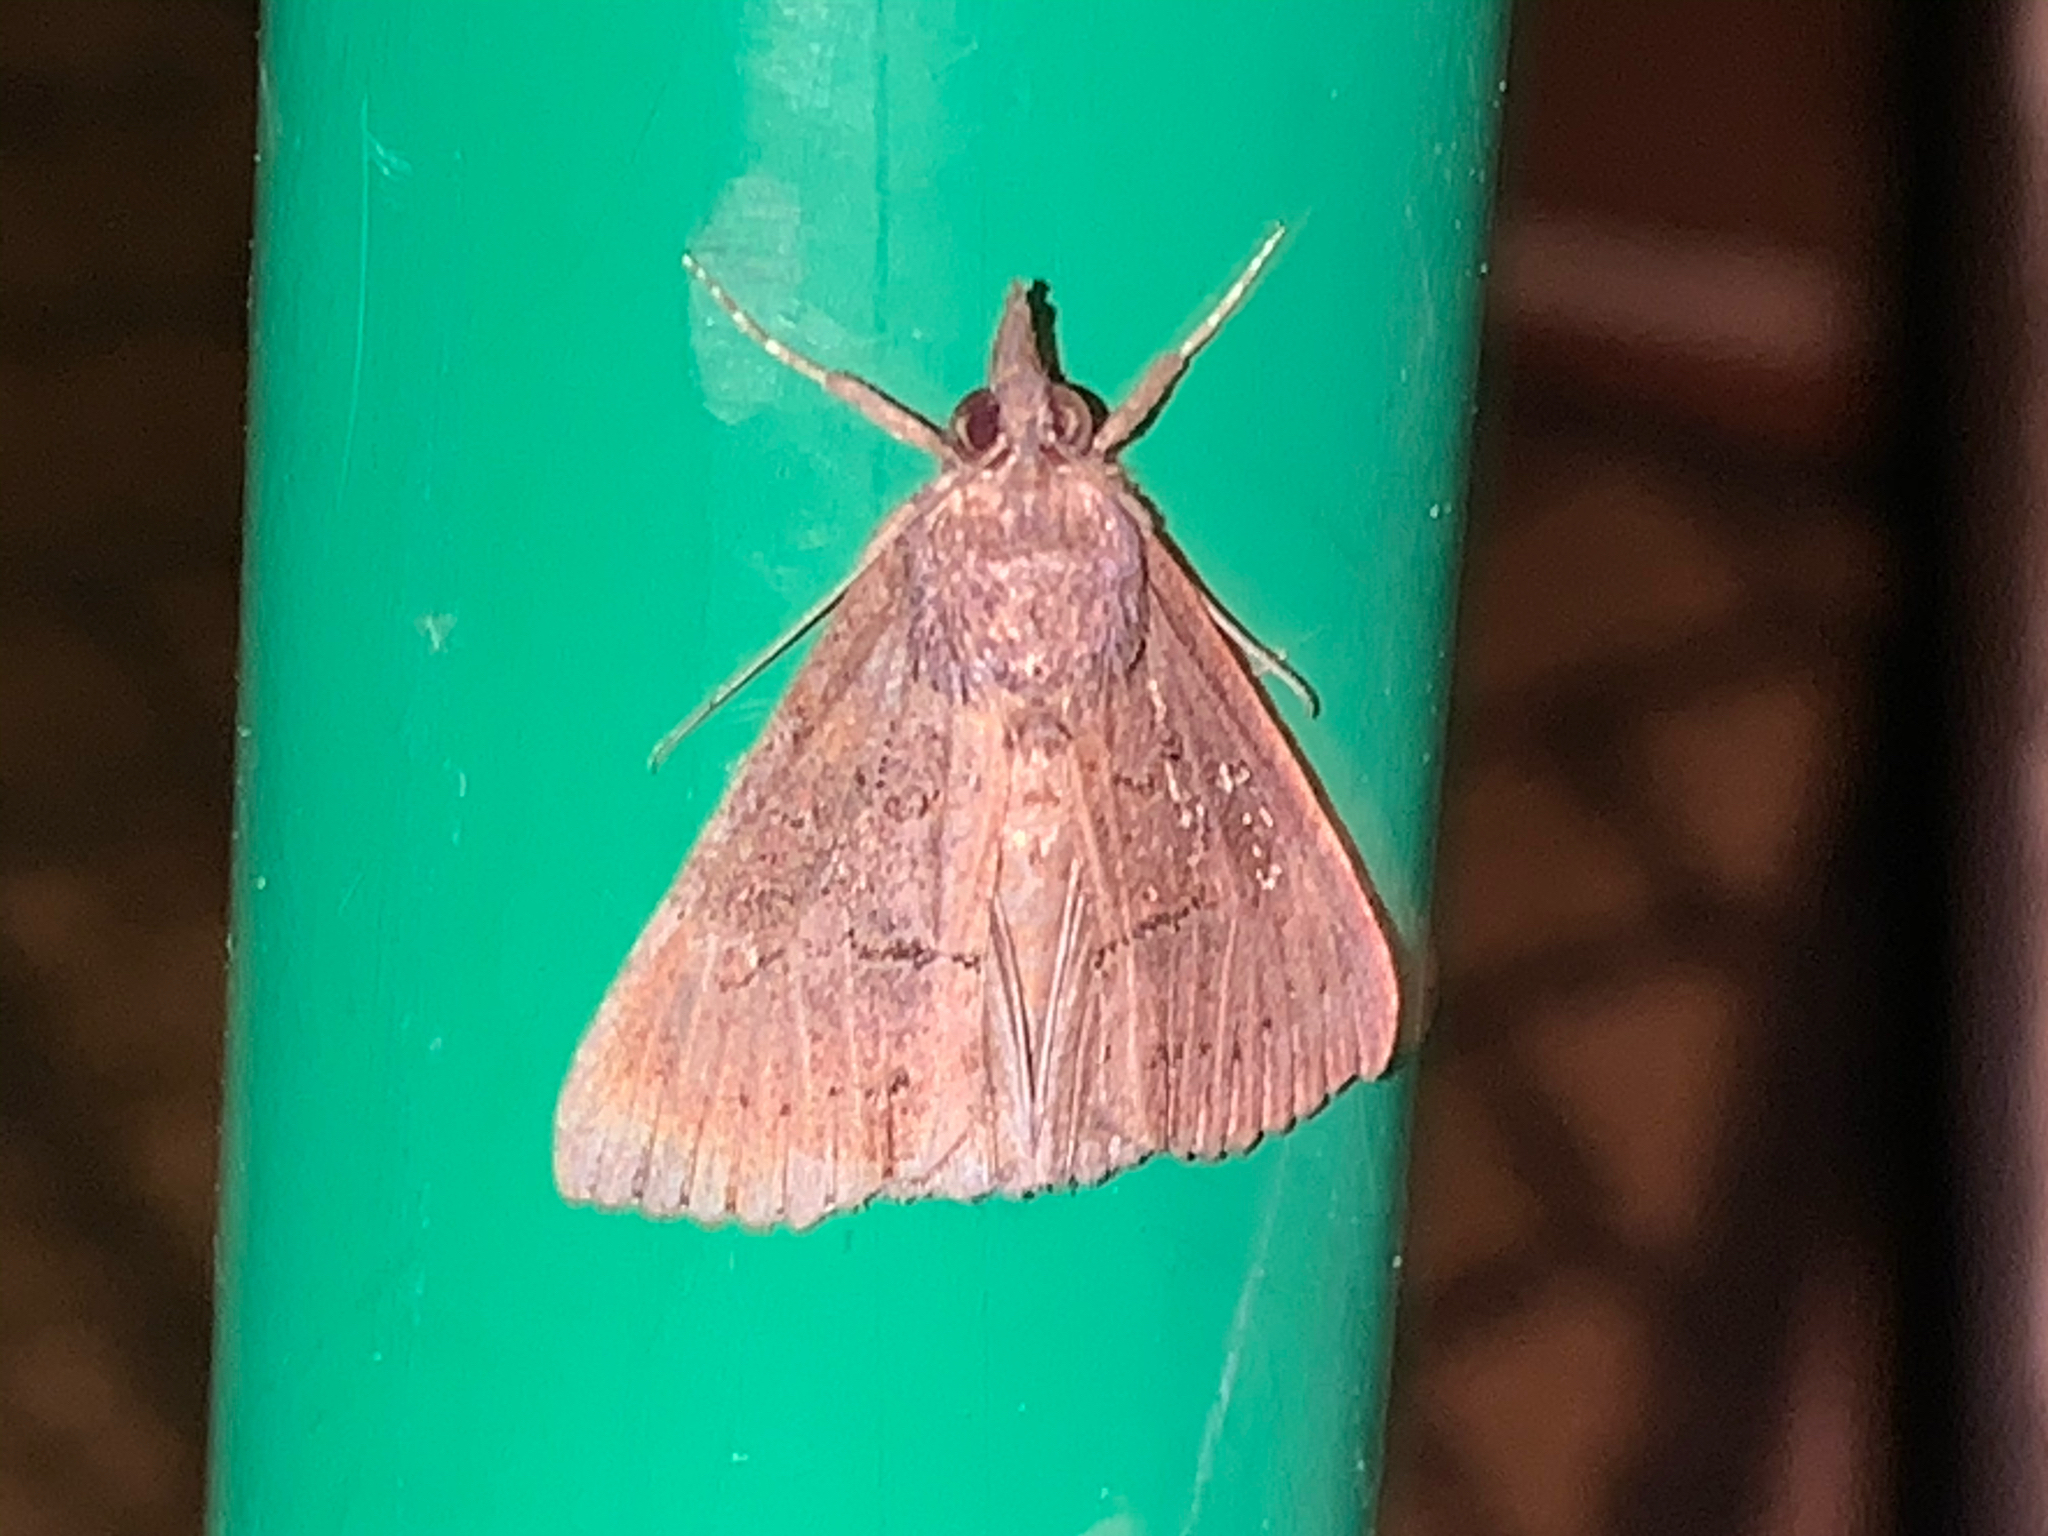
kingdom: Animalia
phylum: Arthropoda
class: Insecta
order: Lepidoptera
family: Erebidae
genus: Hypena
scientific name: Hypena scabra
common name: Green cloverworm
